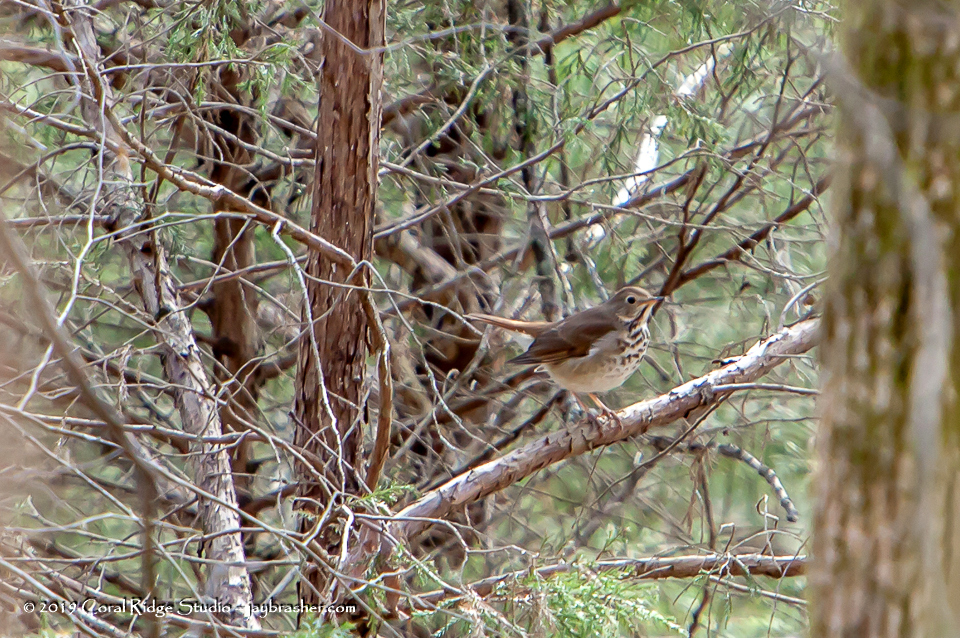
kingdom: Animalia
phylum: Chordata
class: Aves
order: Passeriformes
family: Turdidae
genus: Catharus
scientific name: Catharus guttatus
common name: Hermit thrush
